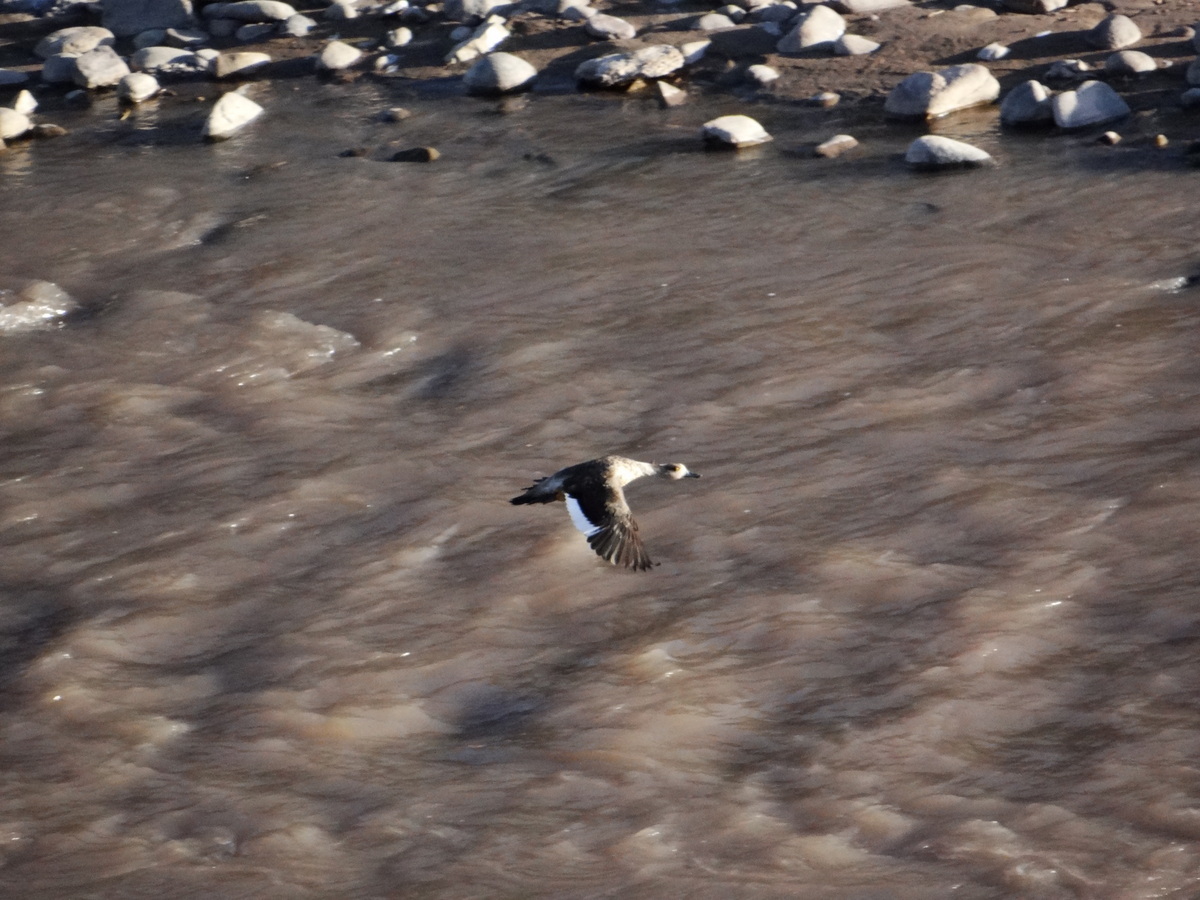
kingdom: Animalia
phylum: Chordata
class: Aves
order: Anseriformes
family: Anatidae
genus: Lophonetta
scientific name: Lophonetta specularioides
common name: Crested duck
